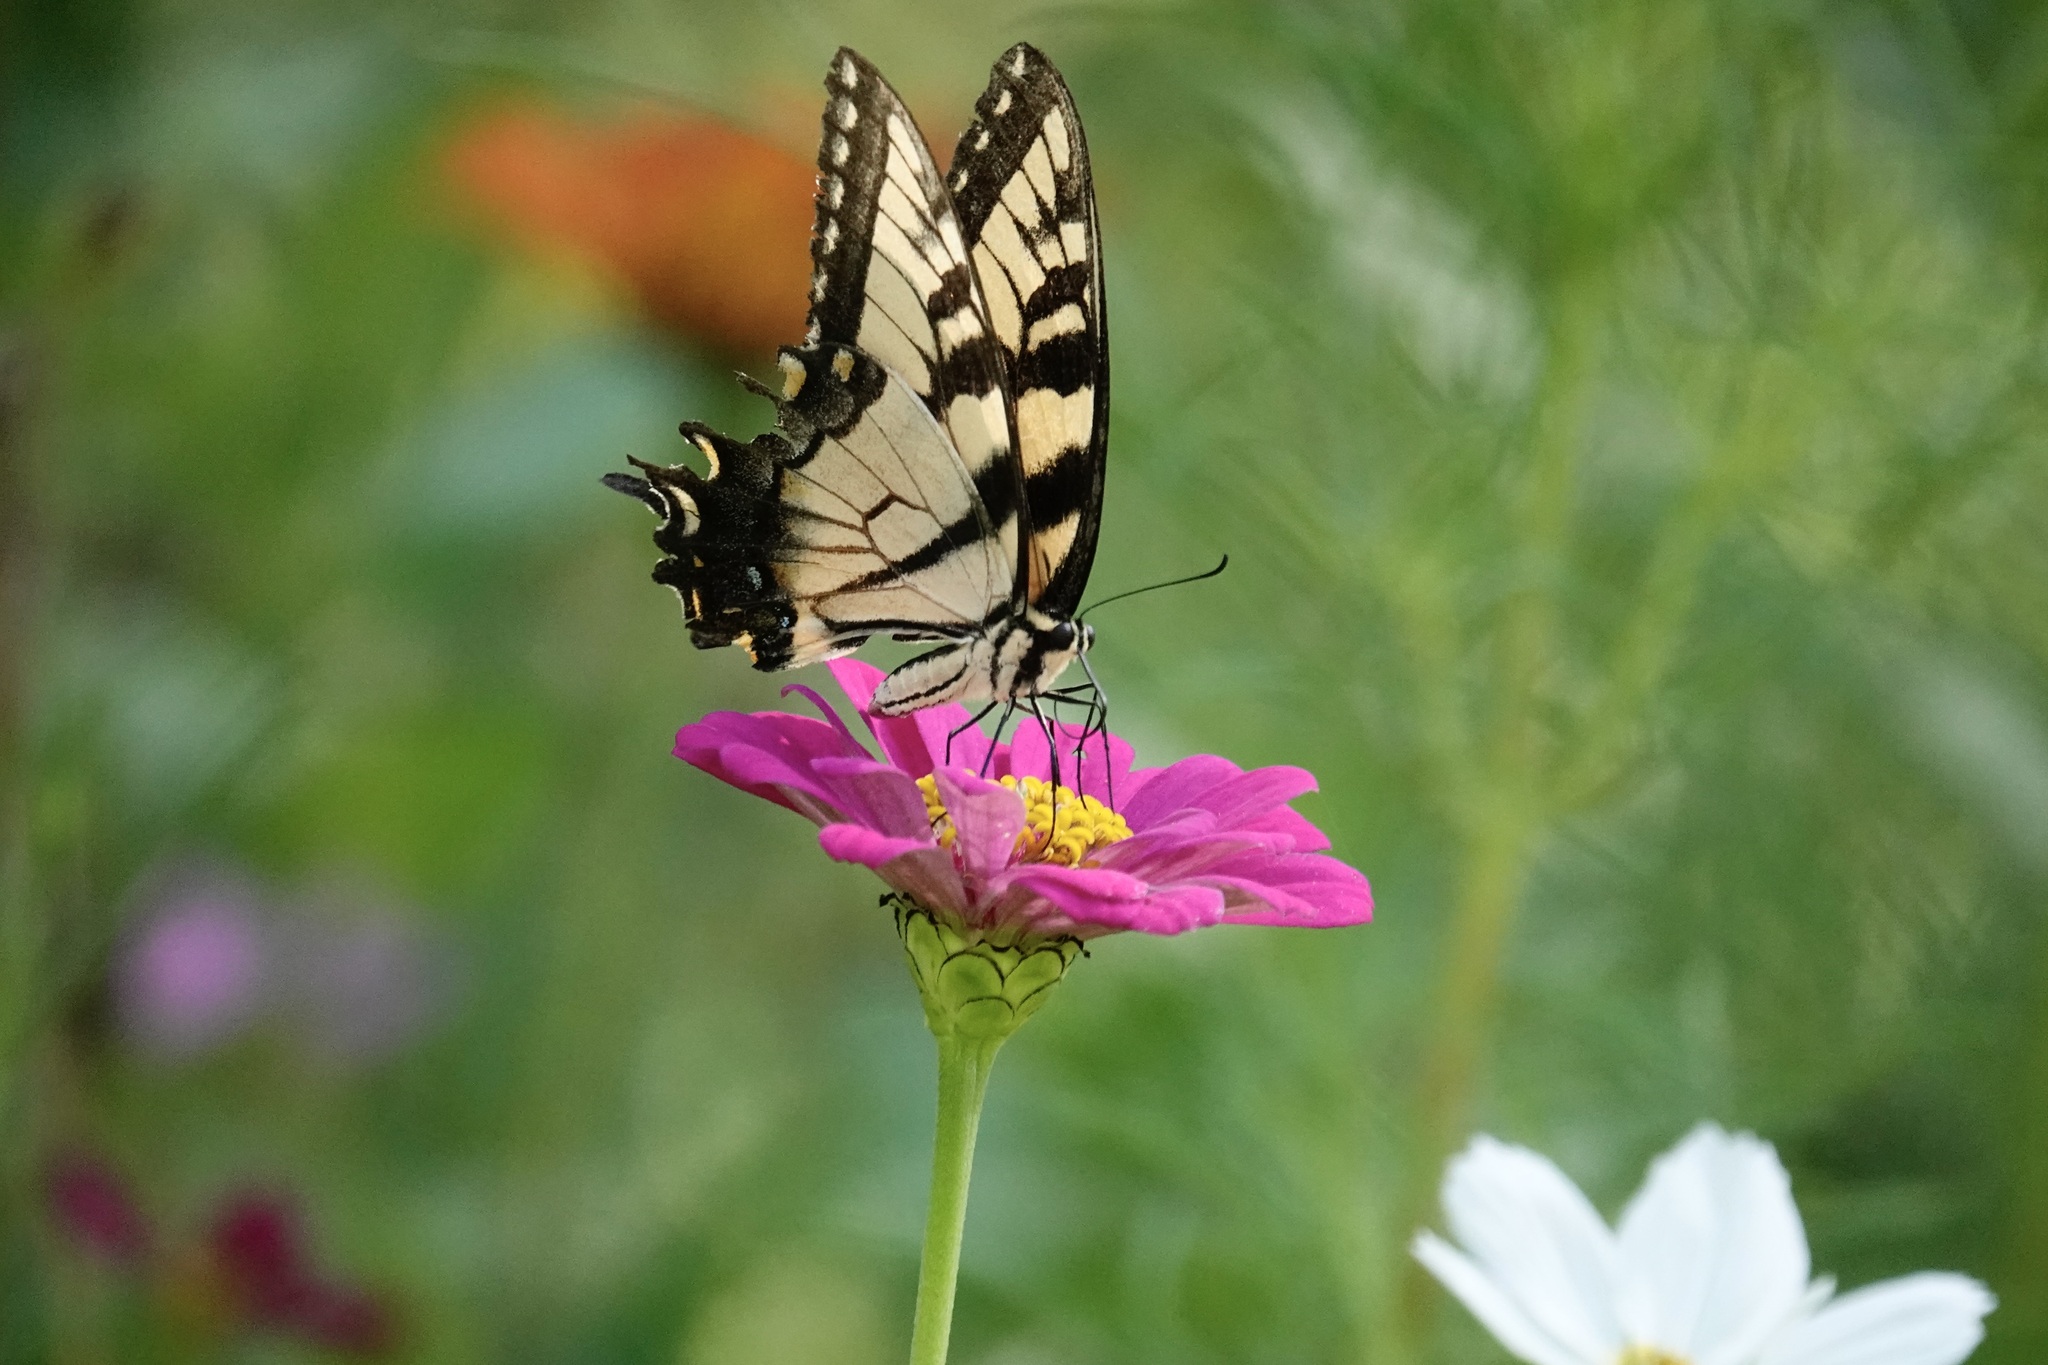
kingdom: Animalia
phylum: Arthropoda
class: Insecta
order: Lepidoptera
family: Papilionidae
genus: Papilio
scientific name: Papilio glaucus
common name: Tiger swallowtail
